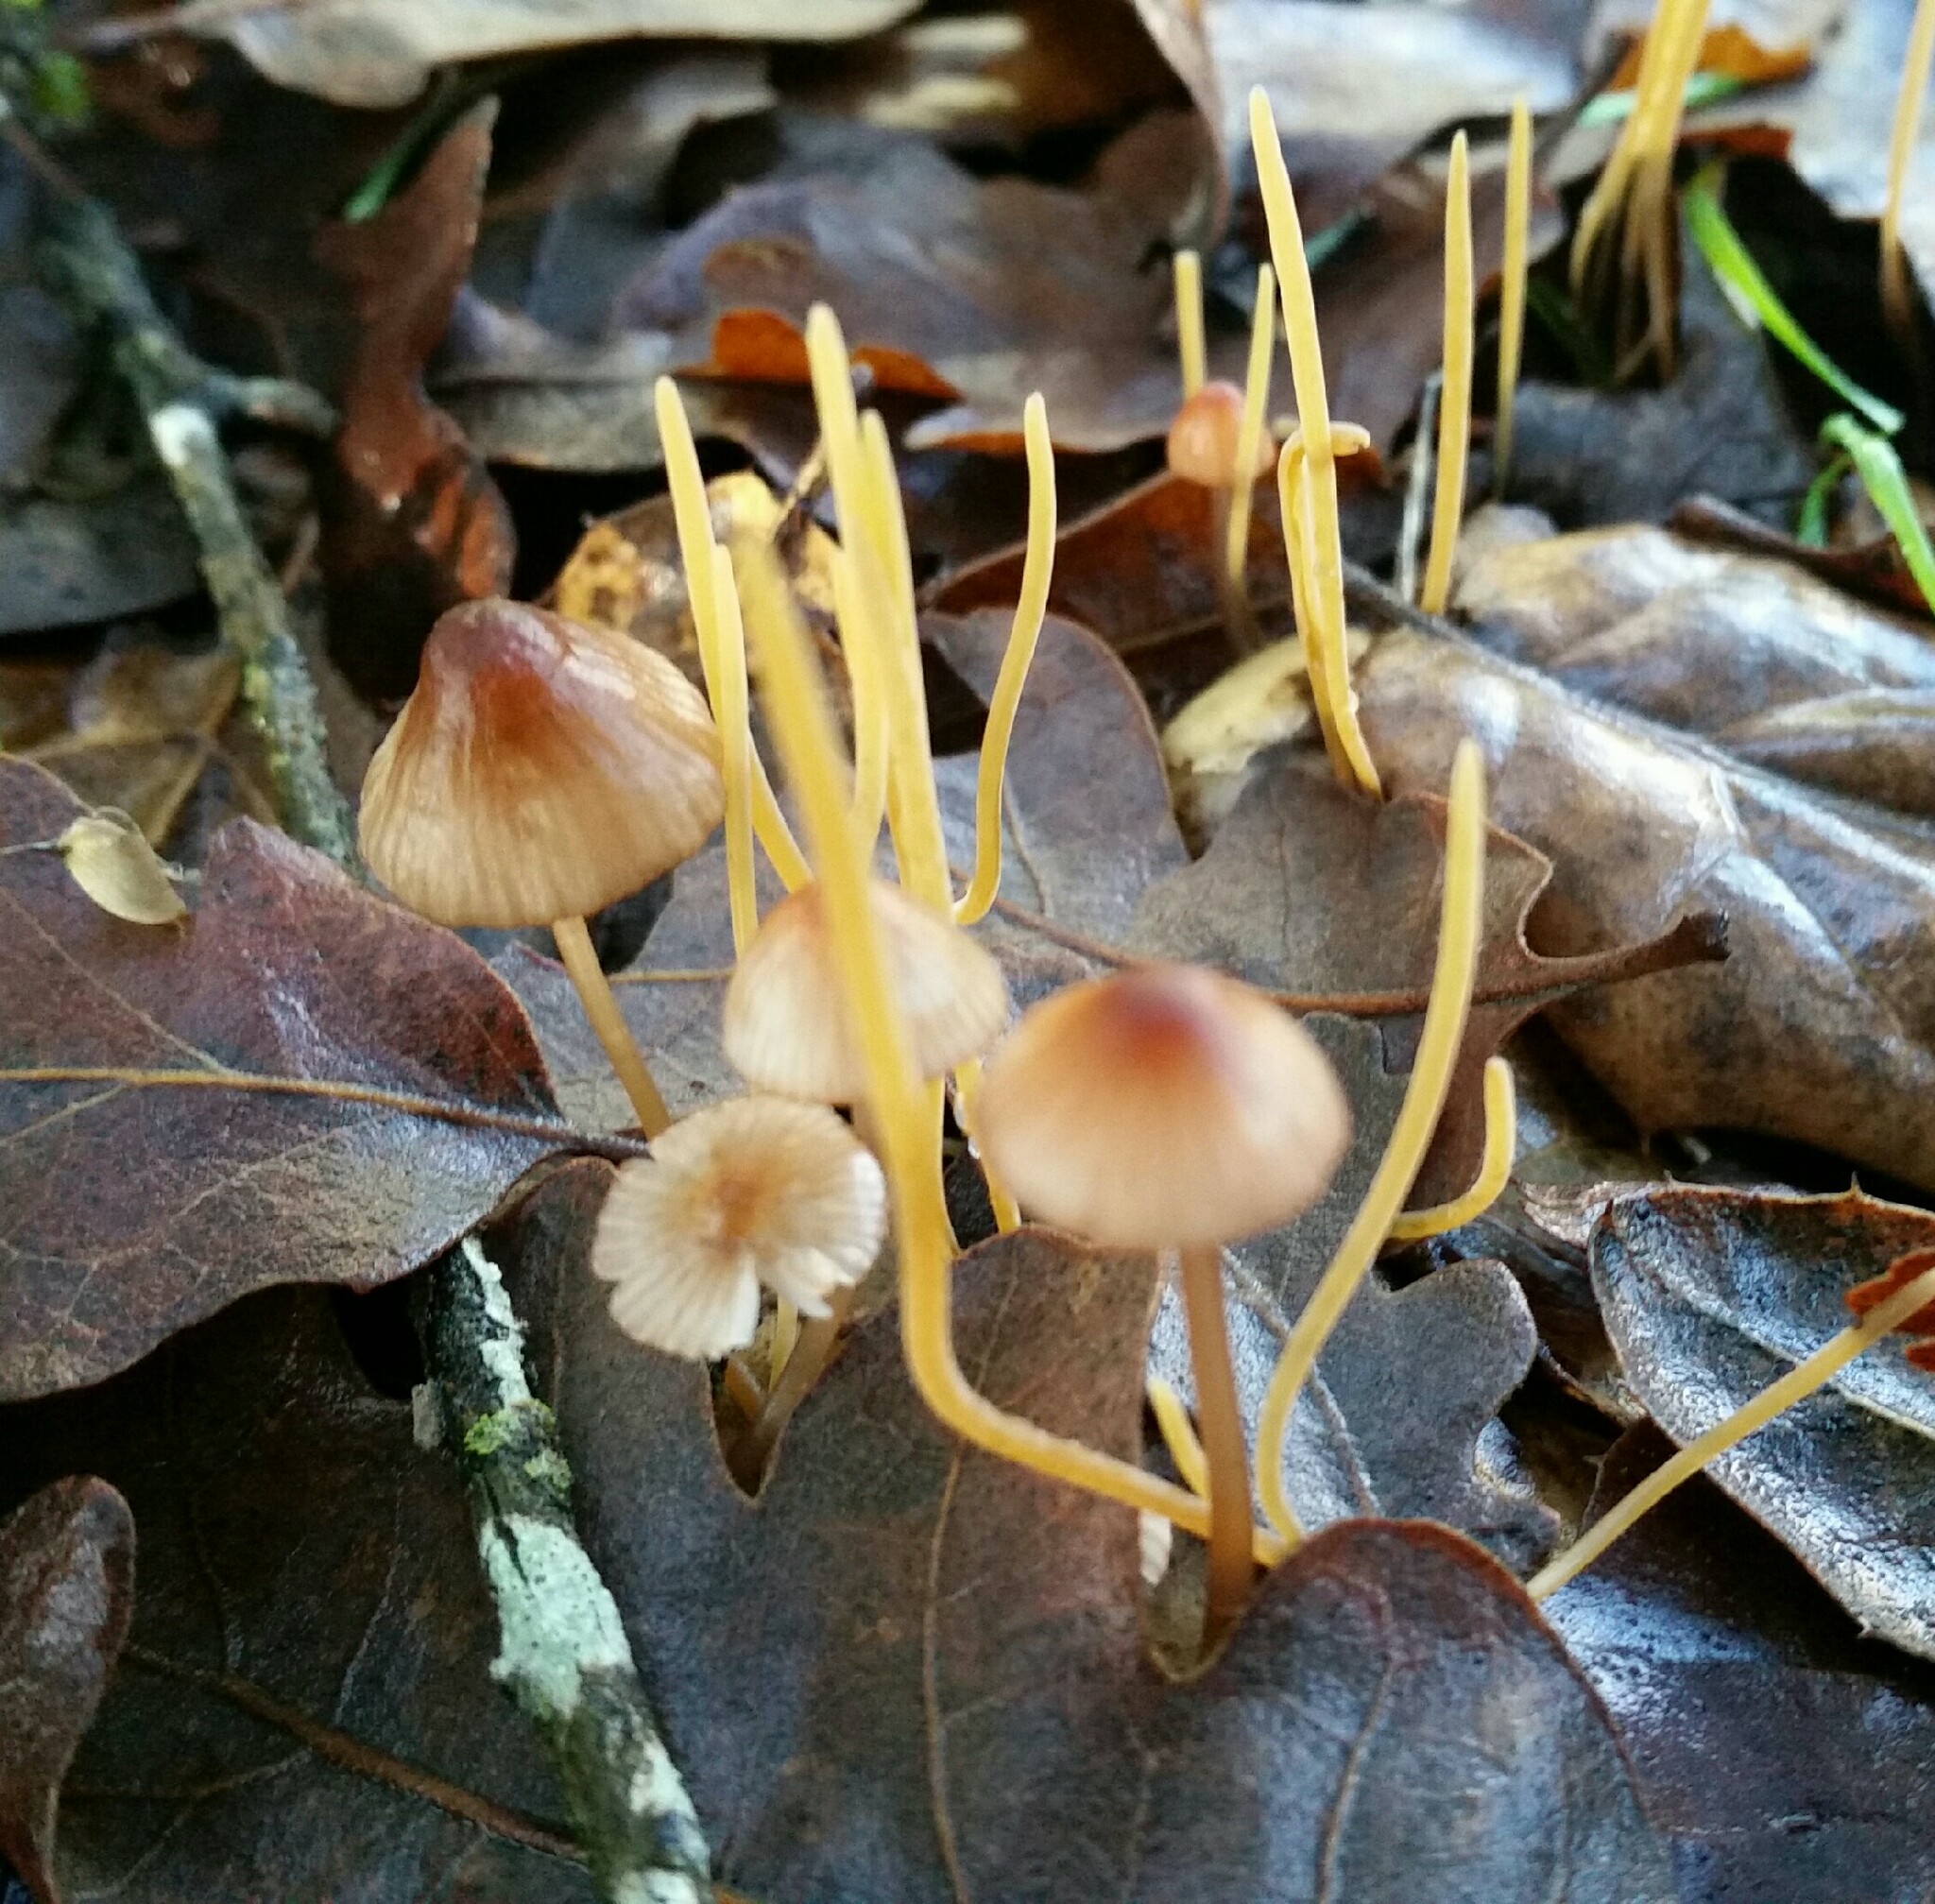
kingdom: Fungi
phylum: Basidiomycota
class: Agaricomycetes
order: Agaricales
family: Mycenaceae
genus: Mycena
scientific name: Mycena
